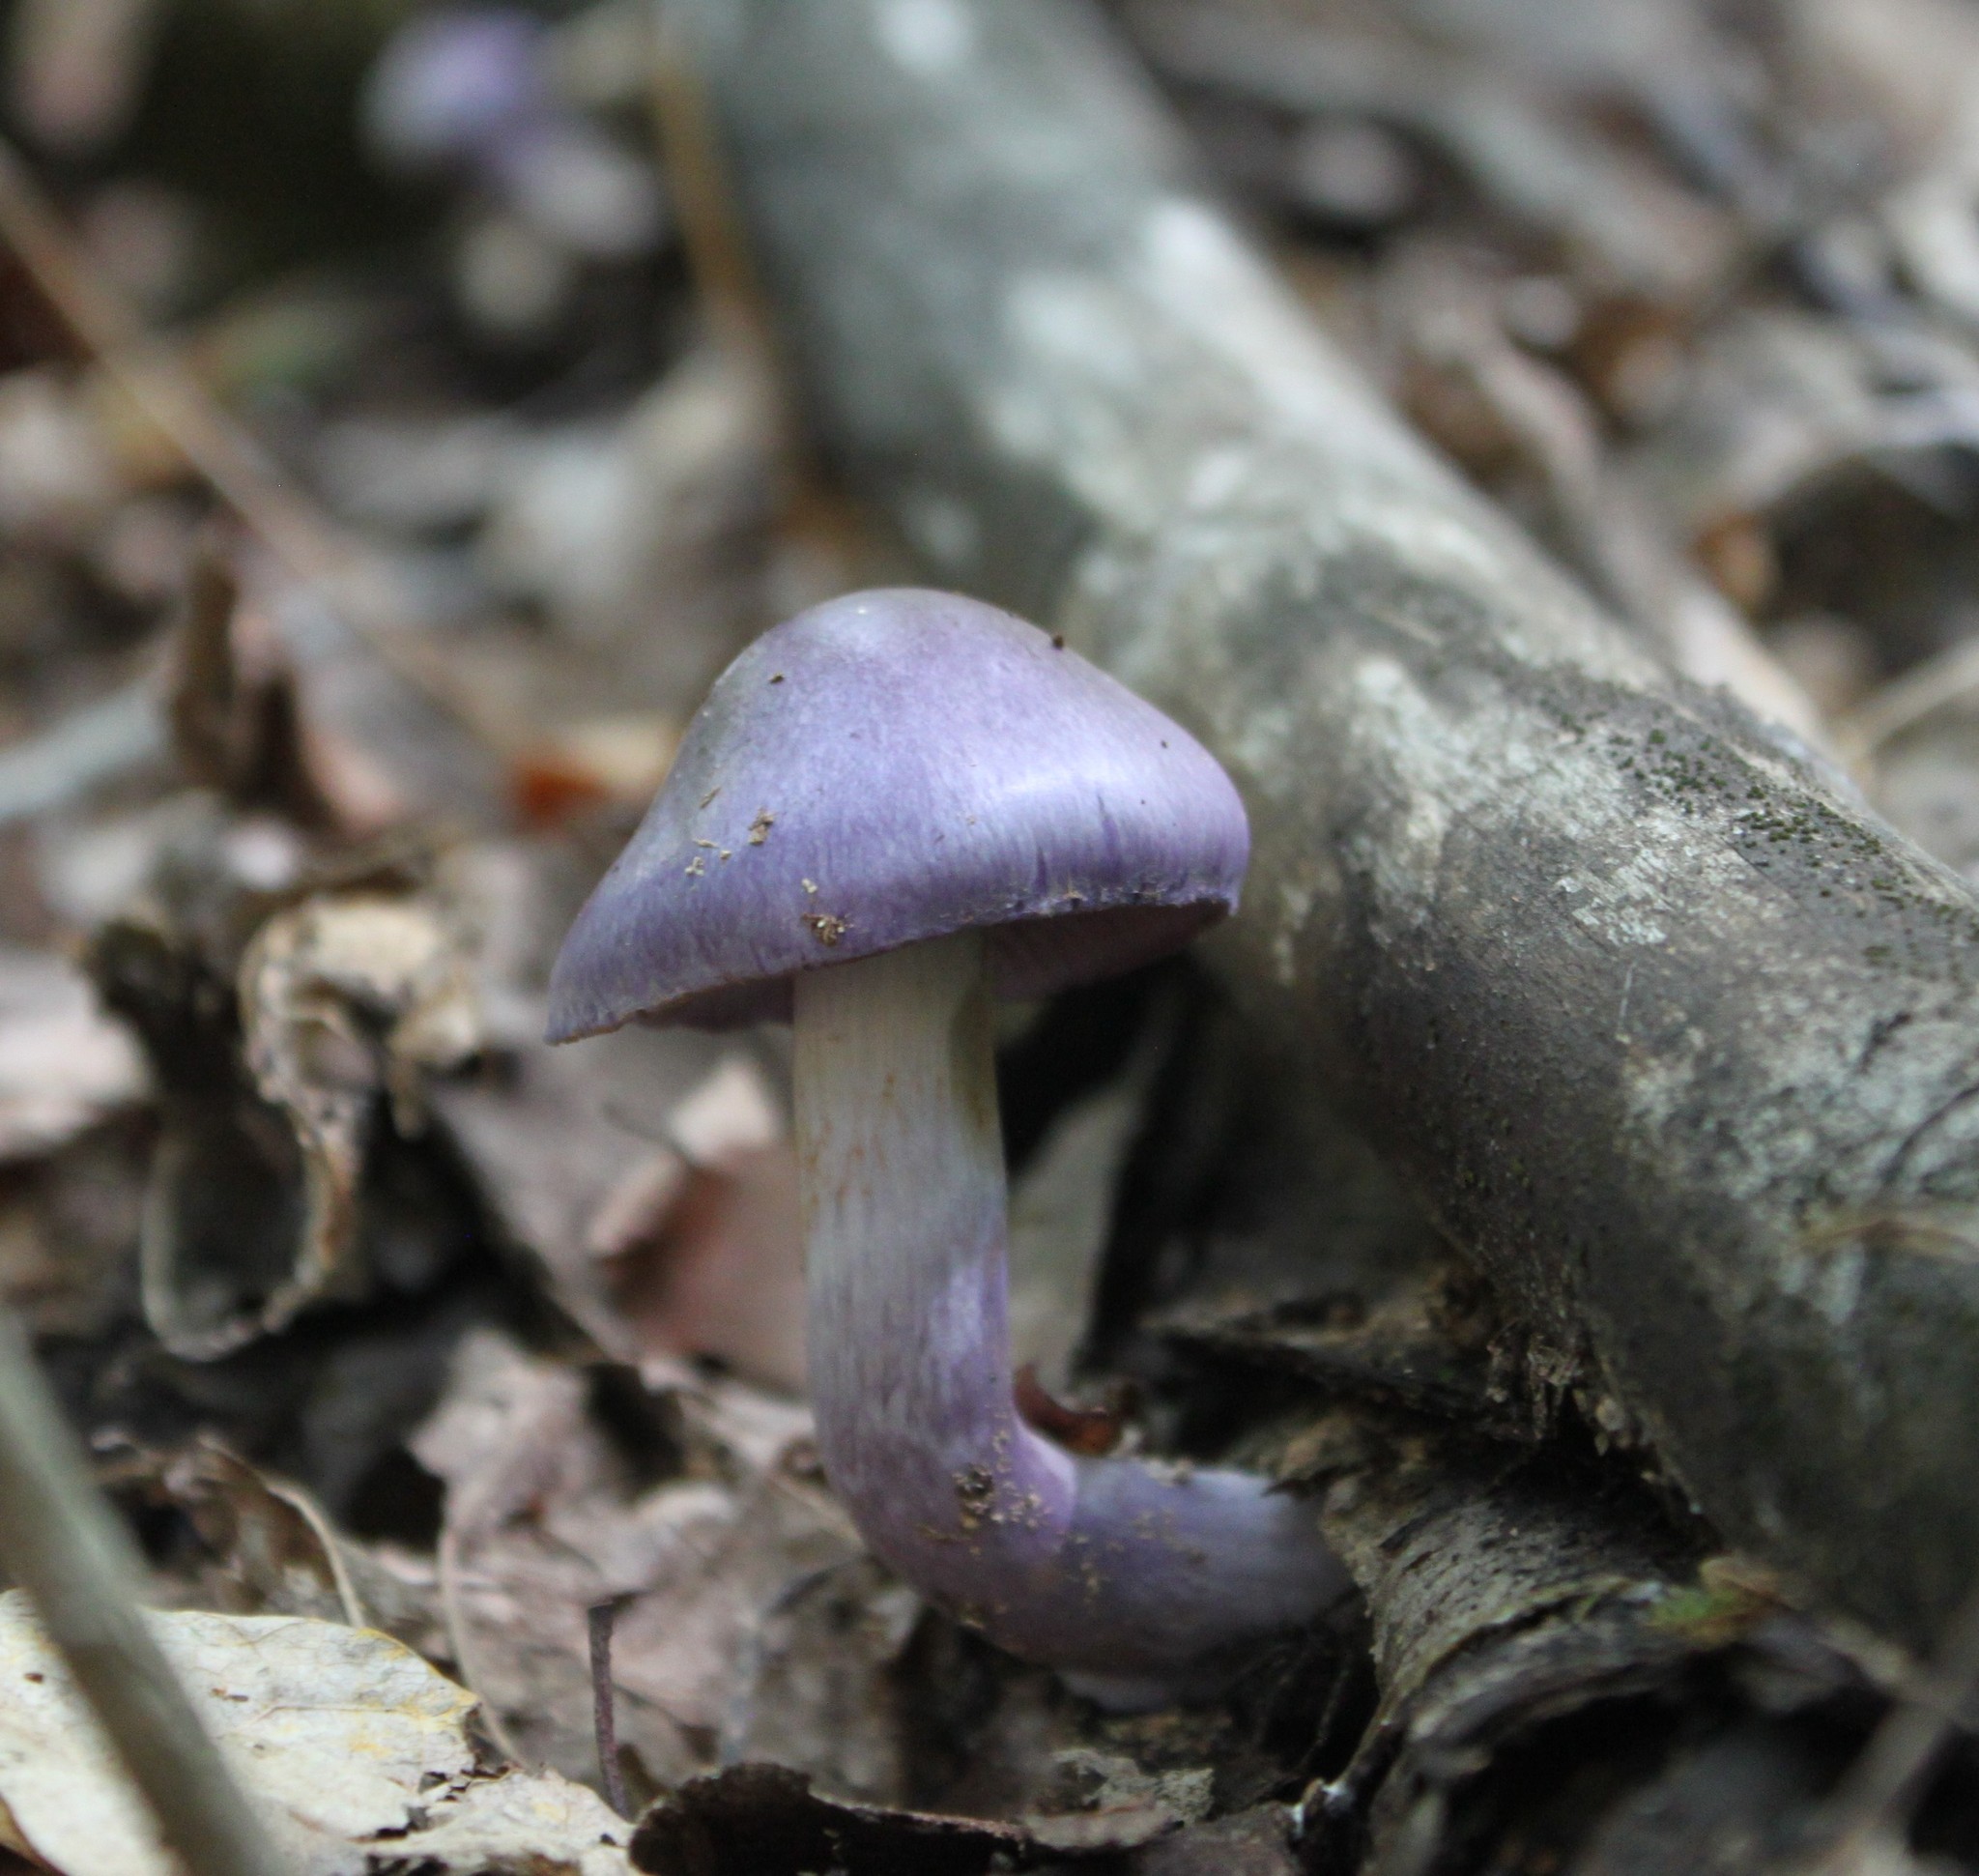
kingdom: Fungi
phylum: Basidiomycota
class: Agaricomycetes
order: Agaricales
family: Cortinariaceae
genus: Cortinarius
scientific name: Cortinarius iodes
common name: Viscid violet cort
